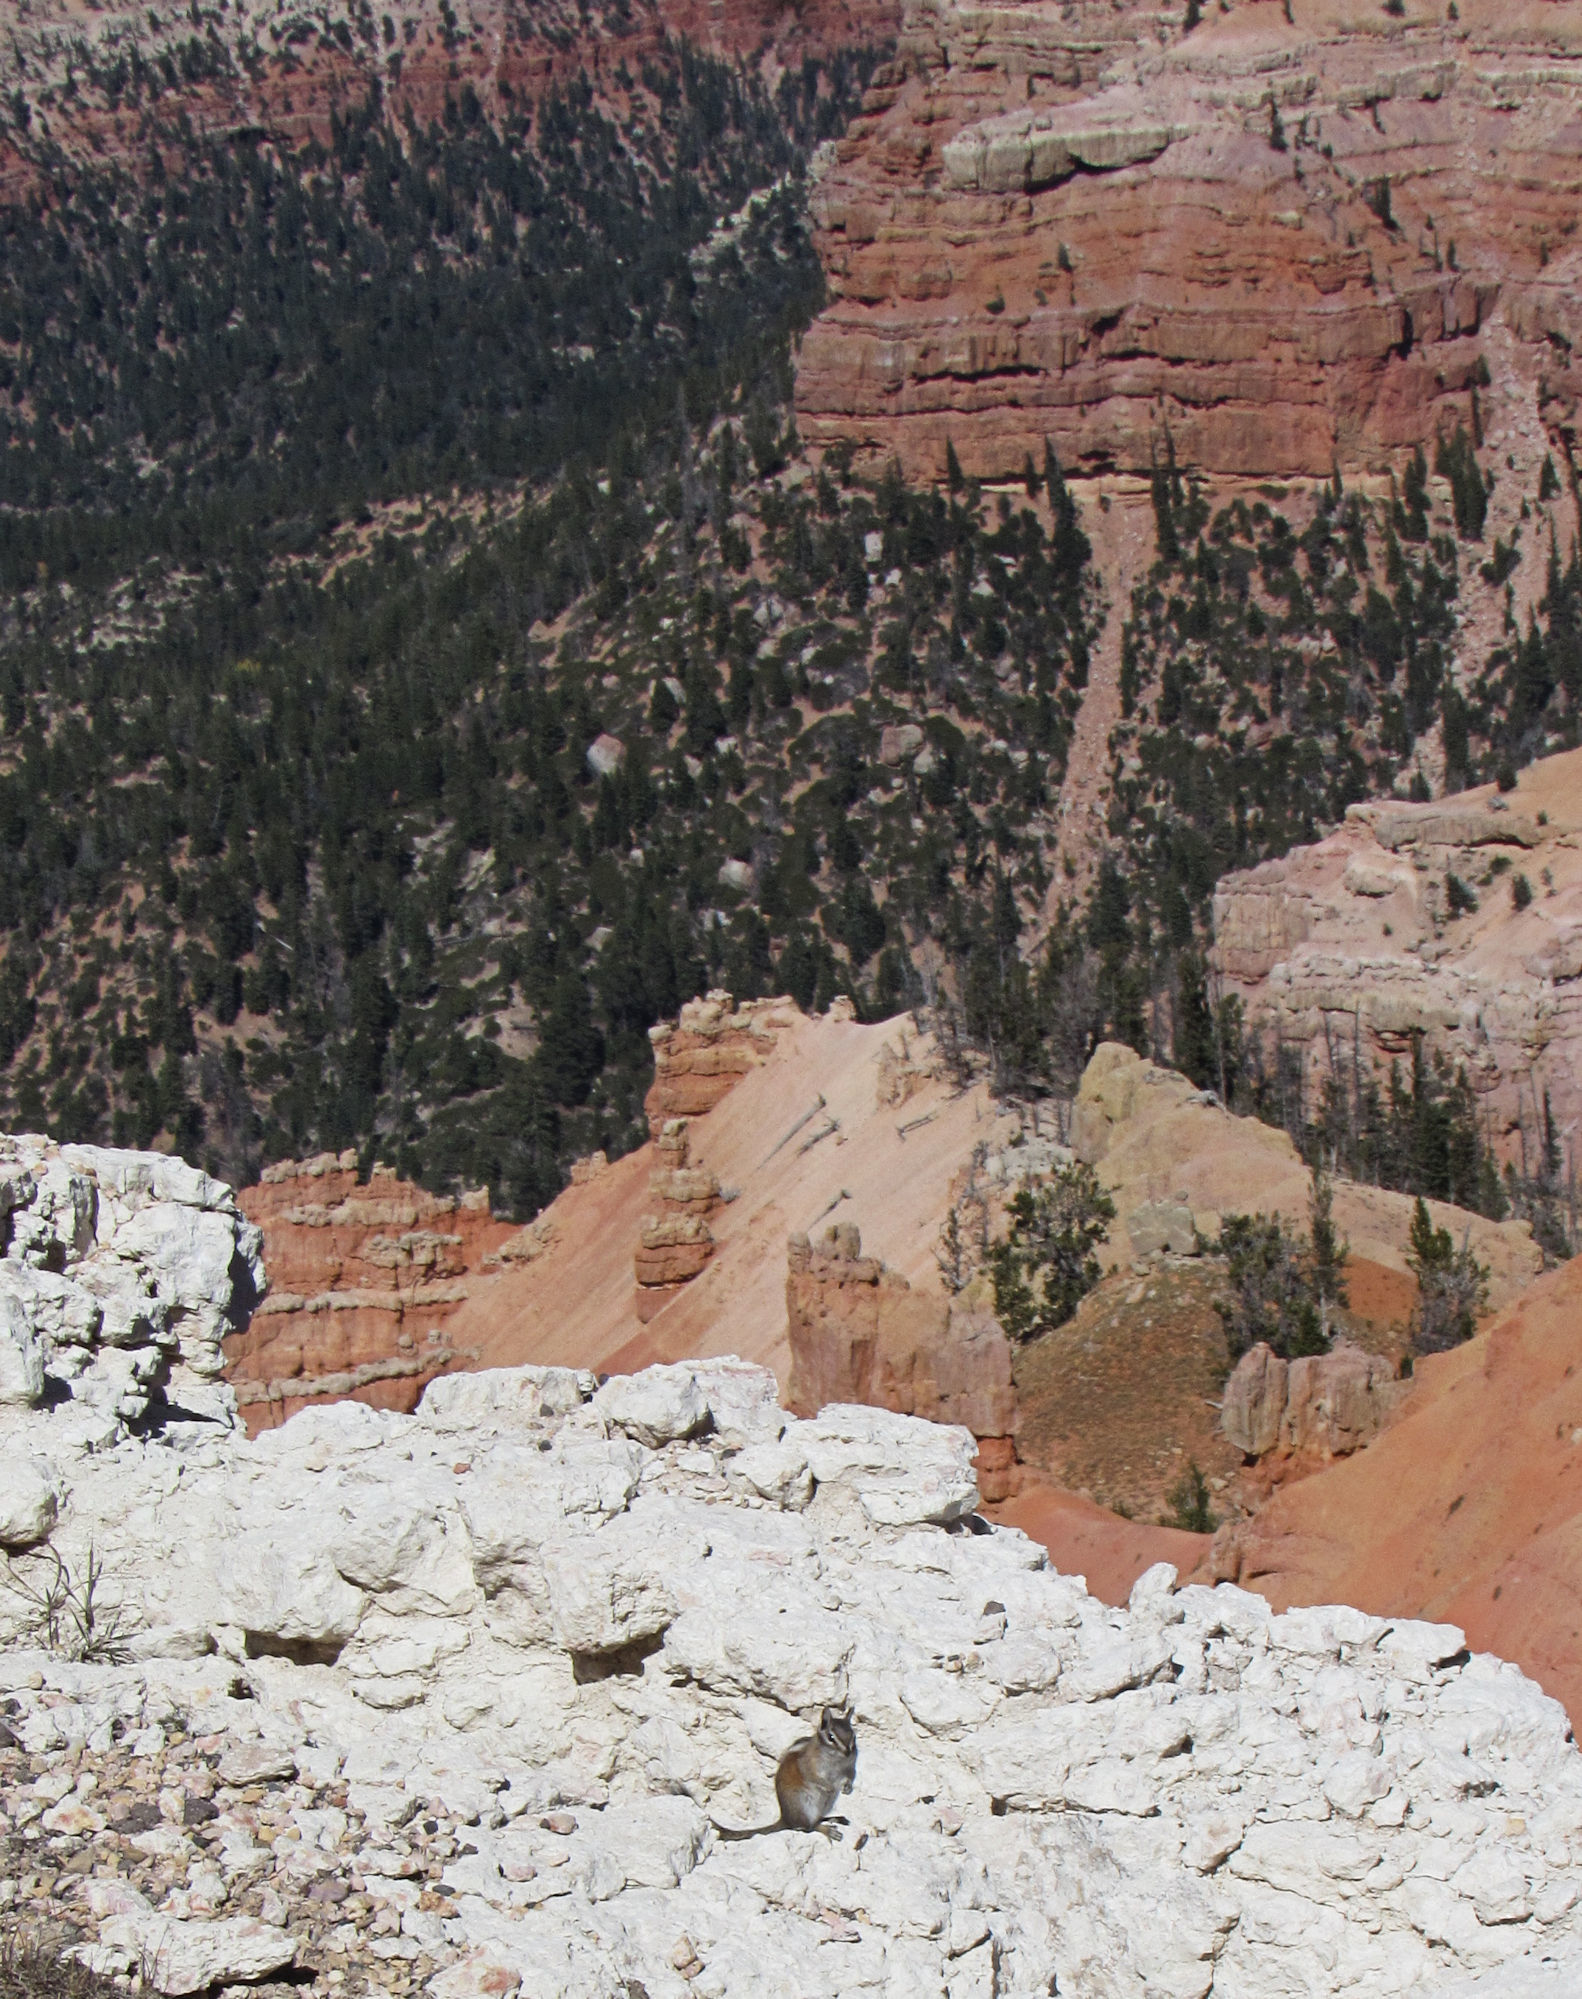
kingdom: Animalia
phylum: Chordata
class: Mammalia
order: Rodentia
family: Sciuridae
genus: Tamias
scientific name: Tamias umbrinus
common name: Uinta chipmunk
